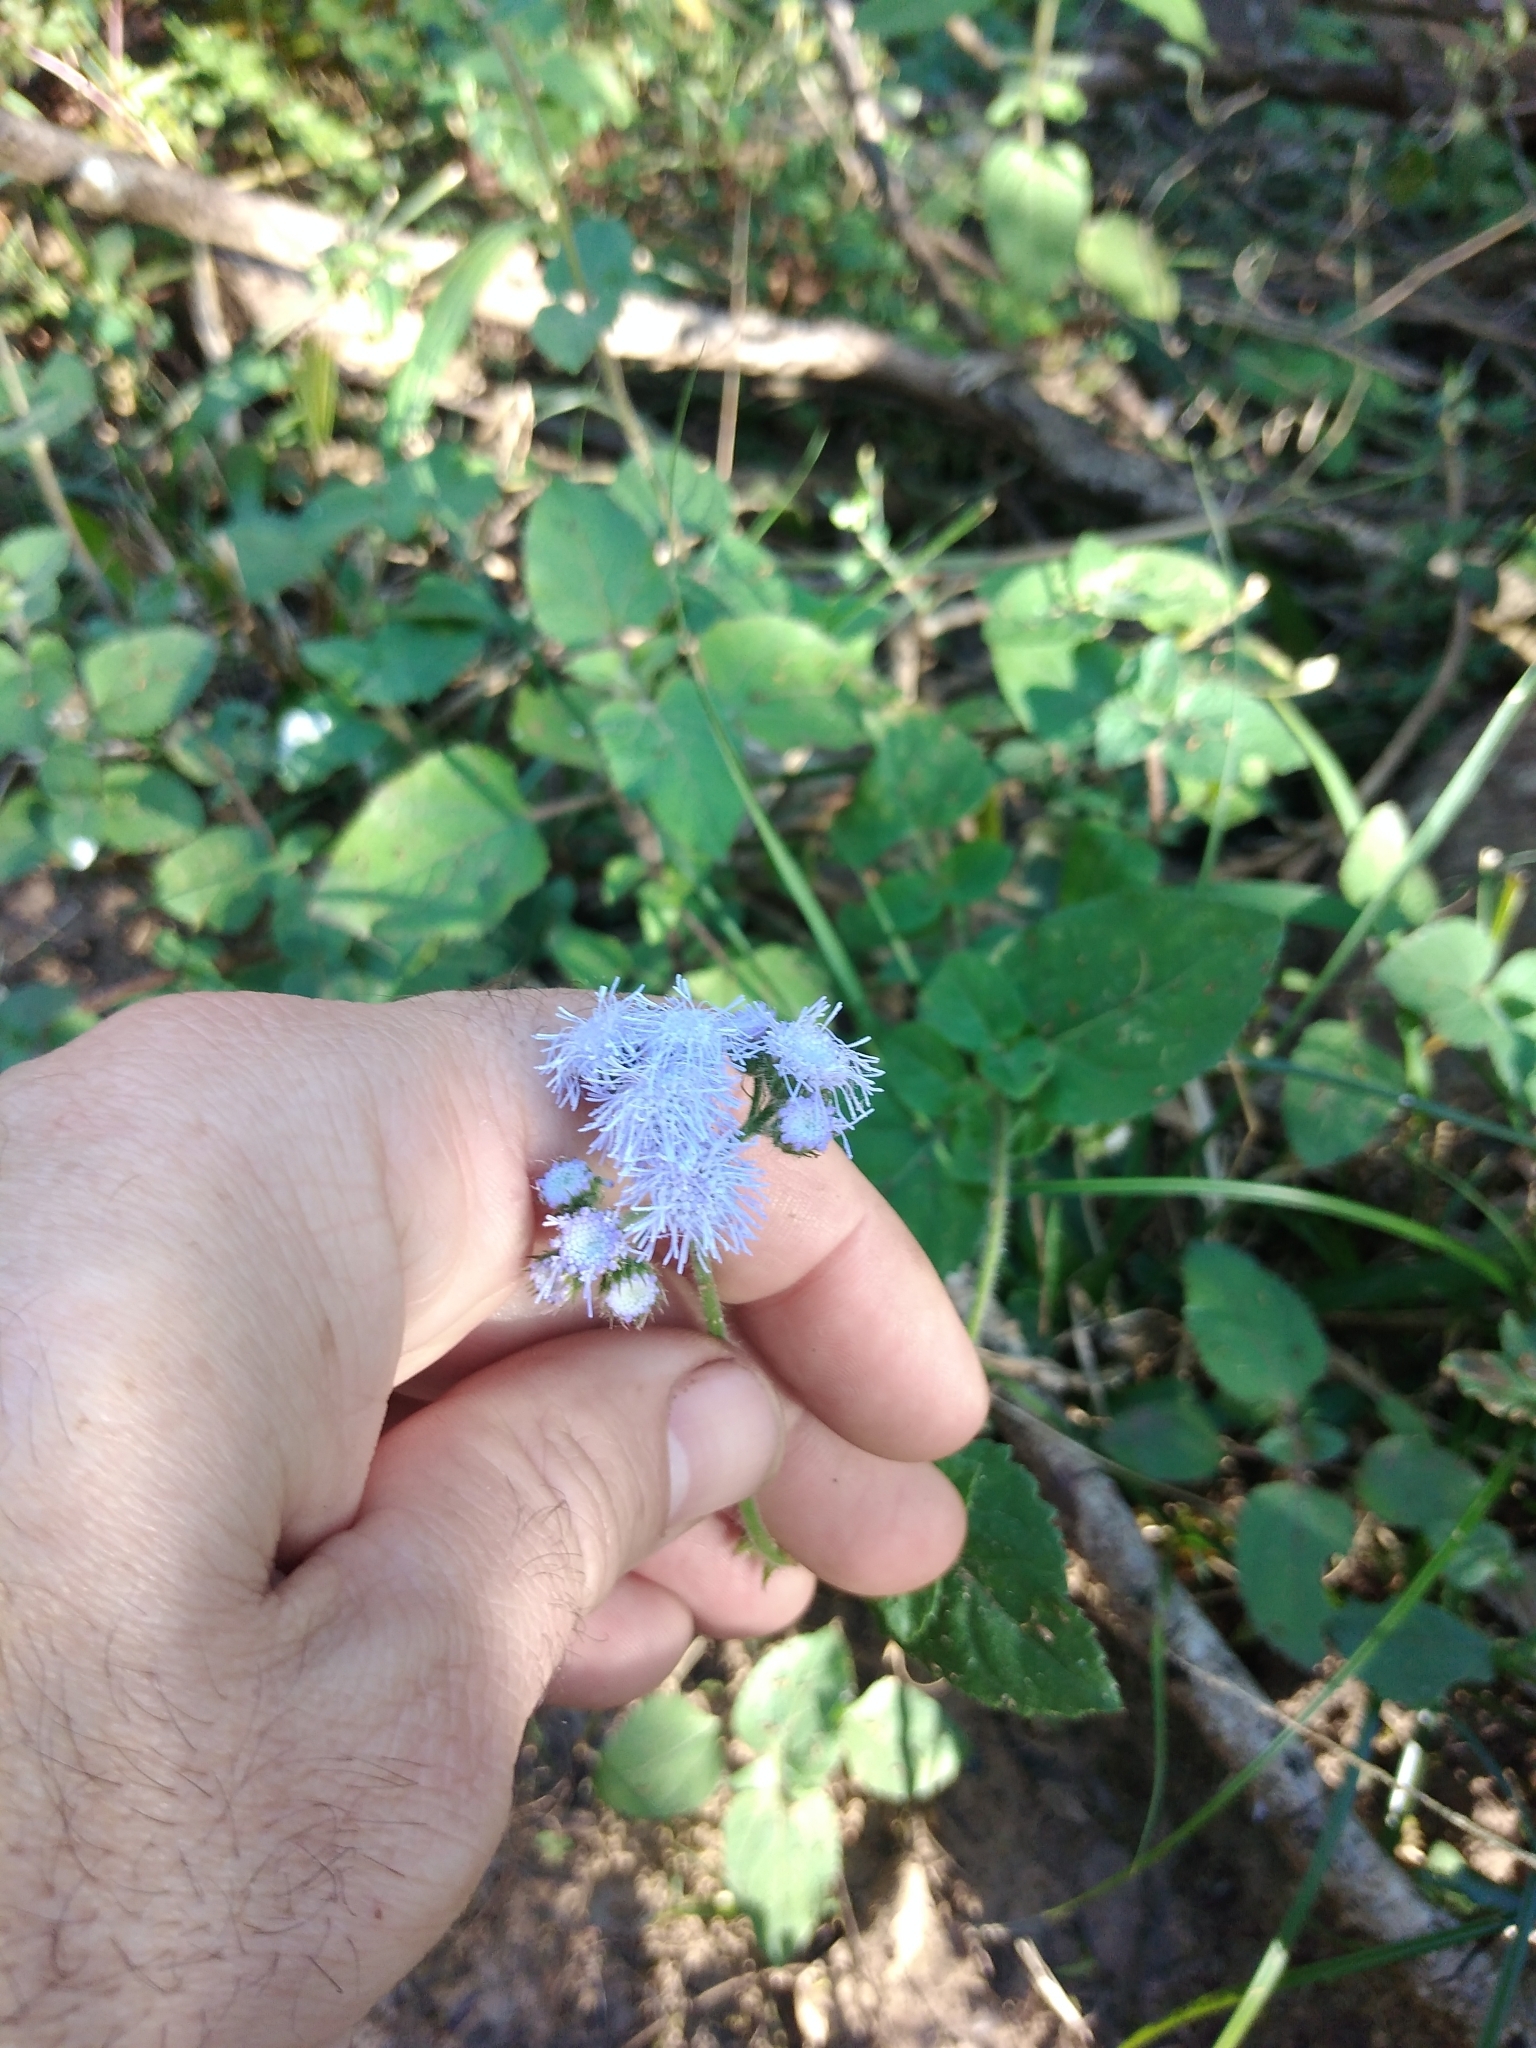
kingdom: Plantae
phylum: Tracheophyta
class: Magnoliopsida
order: Asterales
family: Asteraceae
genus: Ageratum
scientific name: Ageratum houstonianum
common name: Bluemink
